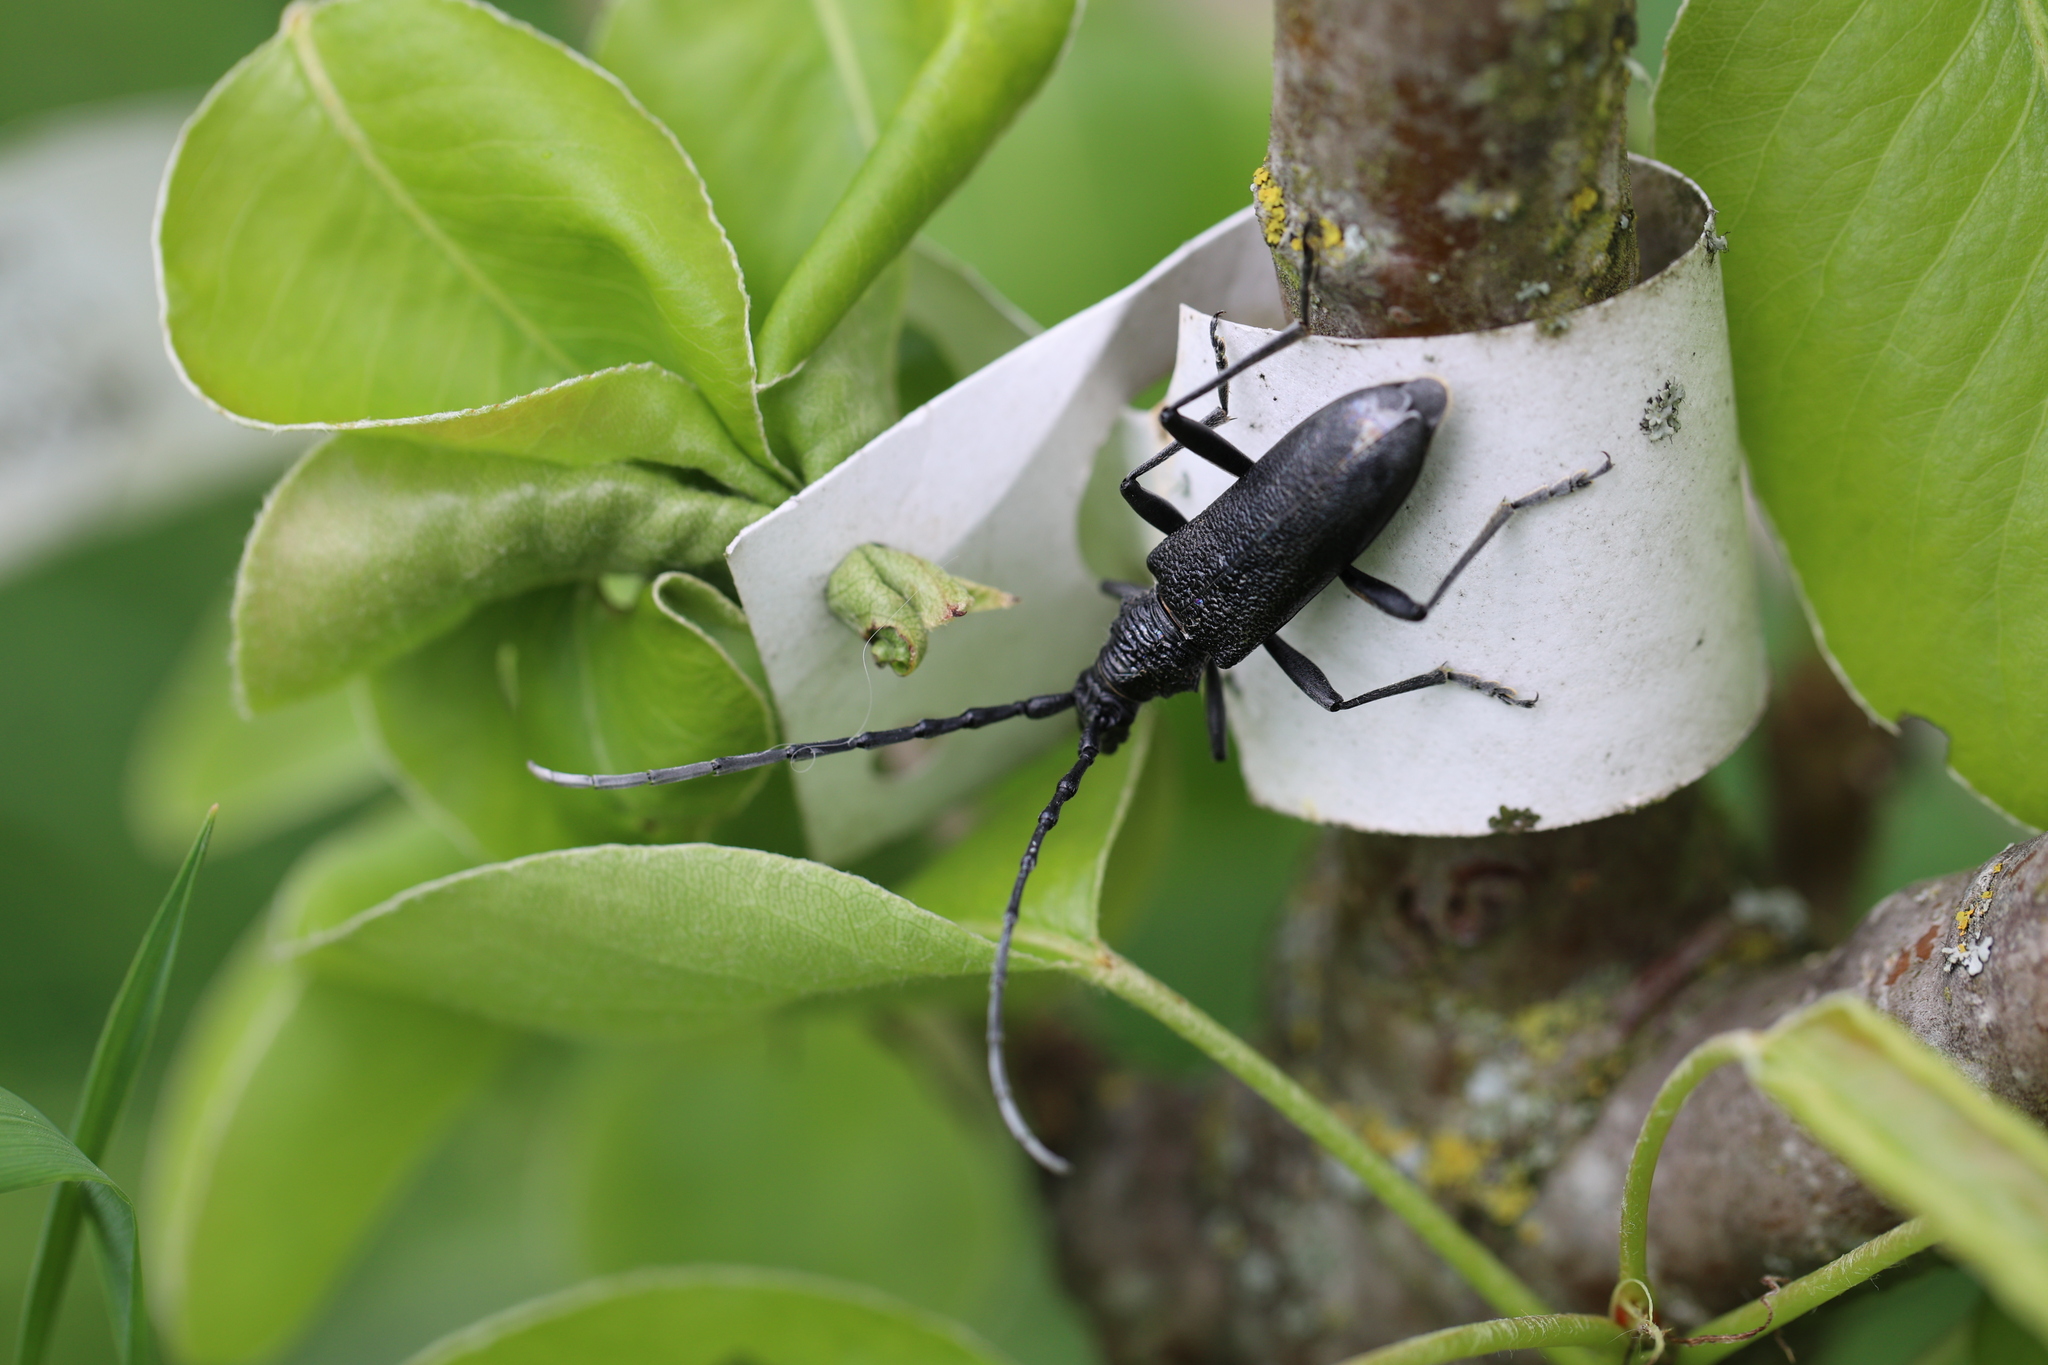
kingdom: Animalia
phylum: Arthropoda
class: Insecta
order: Coleoptera
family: Cerambycidae
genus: Cerambyx
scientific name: Cerambyx scopolii
